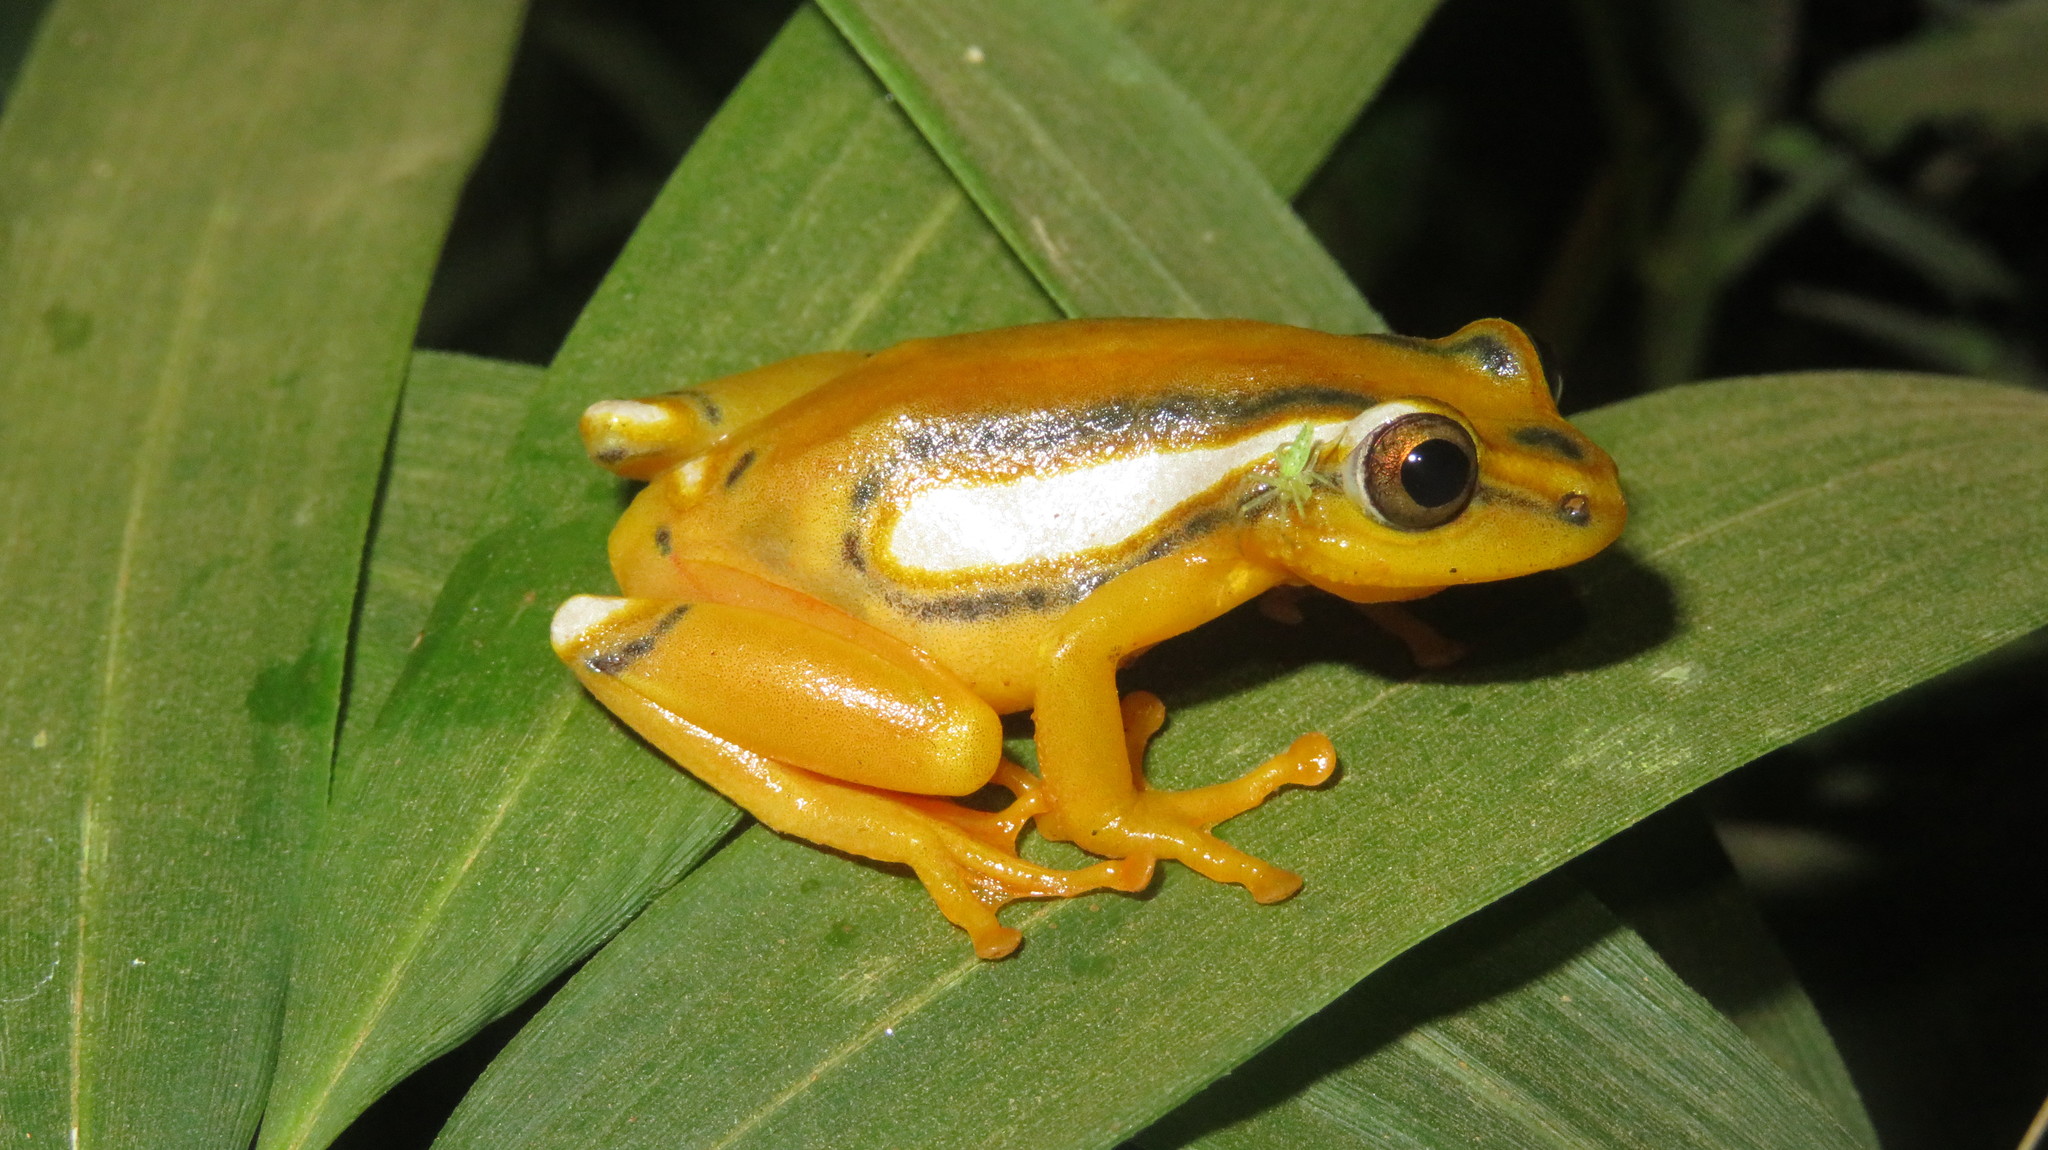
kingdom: Animalia
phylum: Chordata
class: Amphibia
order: Anura
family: Hyperoliidae
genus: Hyperolius
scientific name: Hyperolius rubrovermiculatus
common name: Shimba hills reed frog
